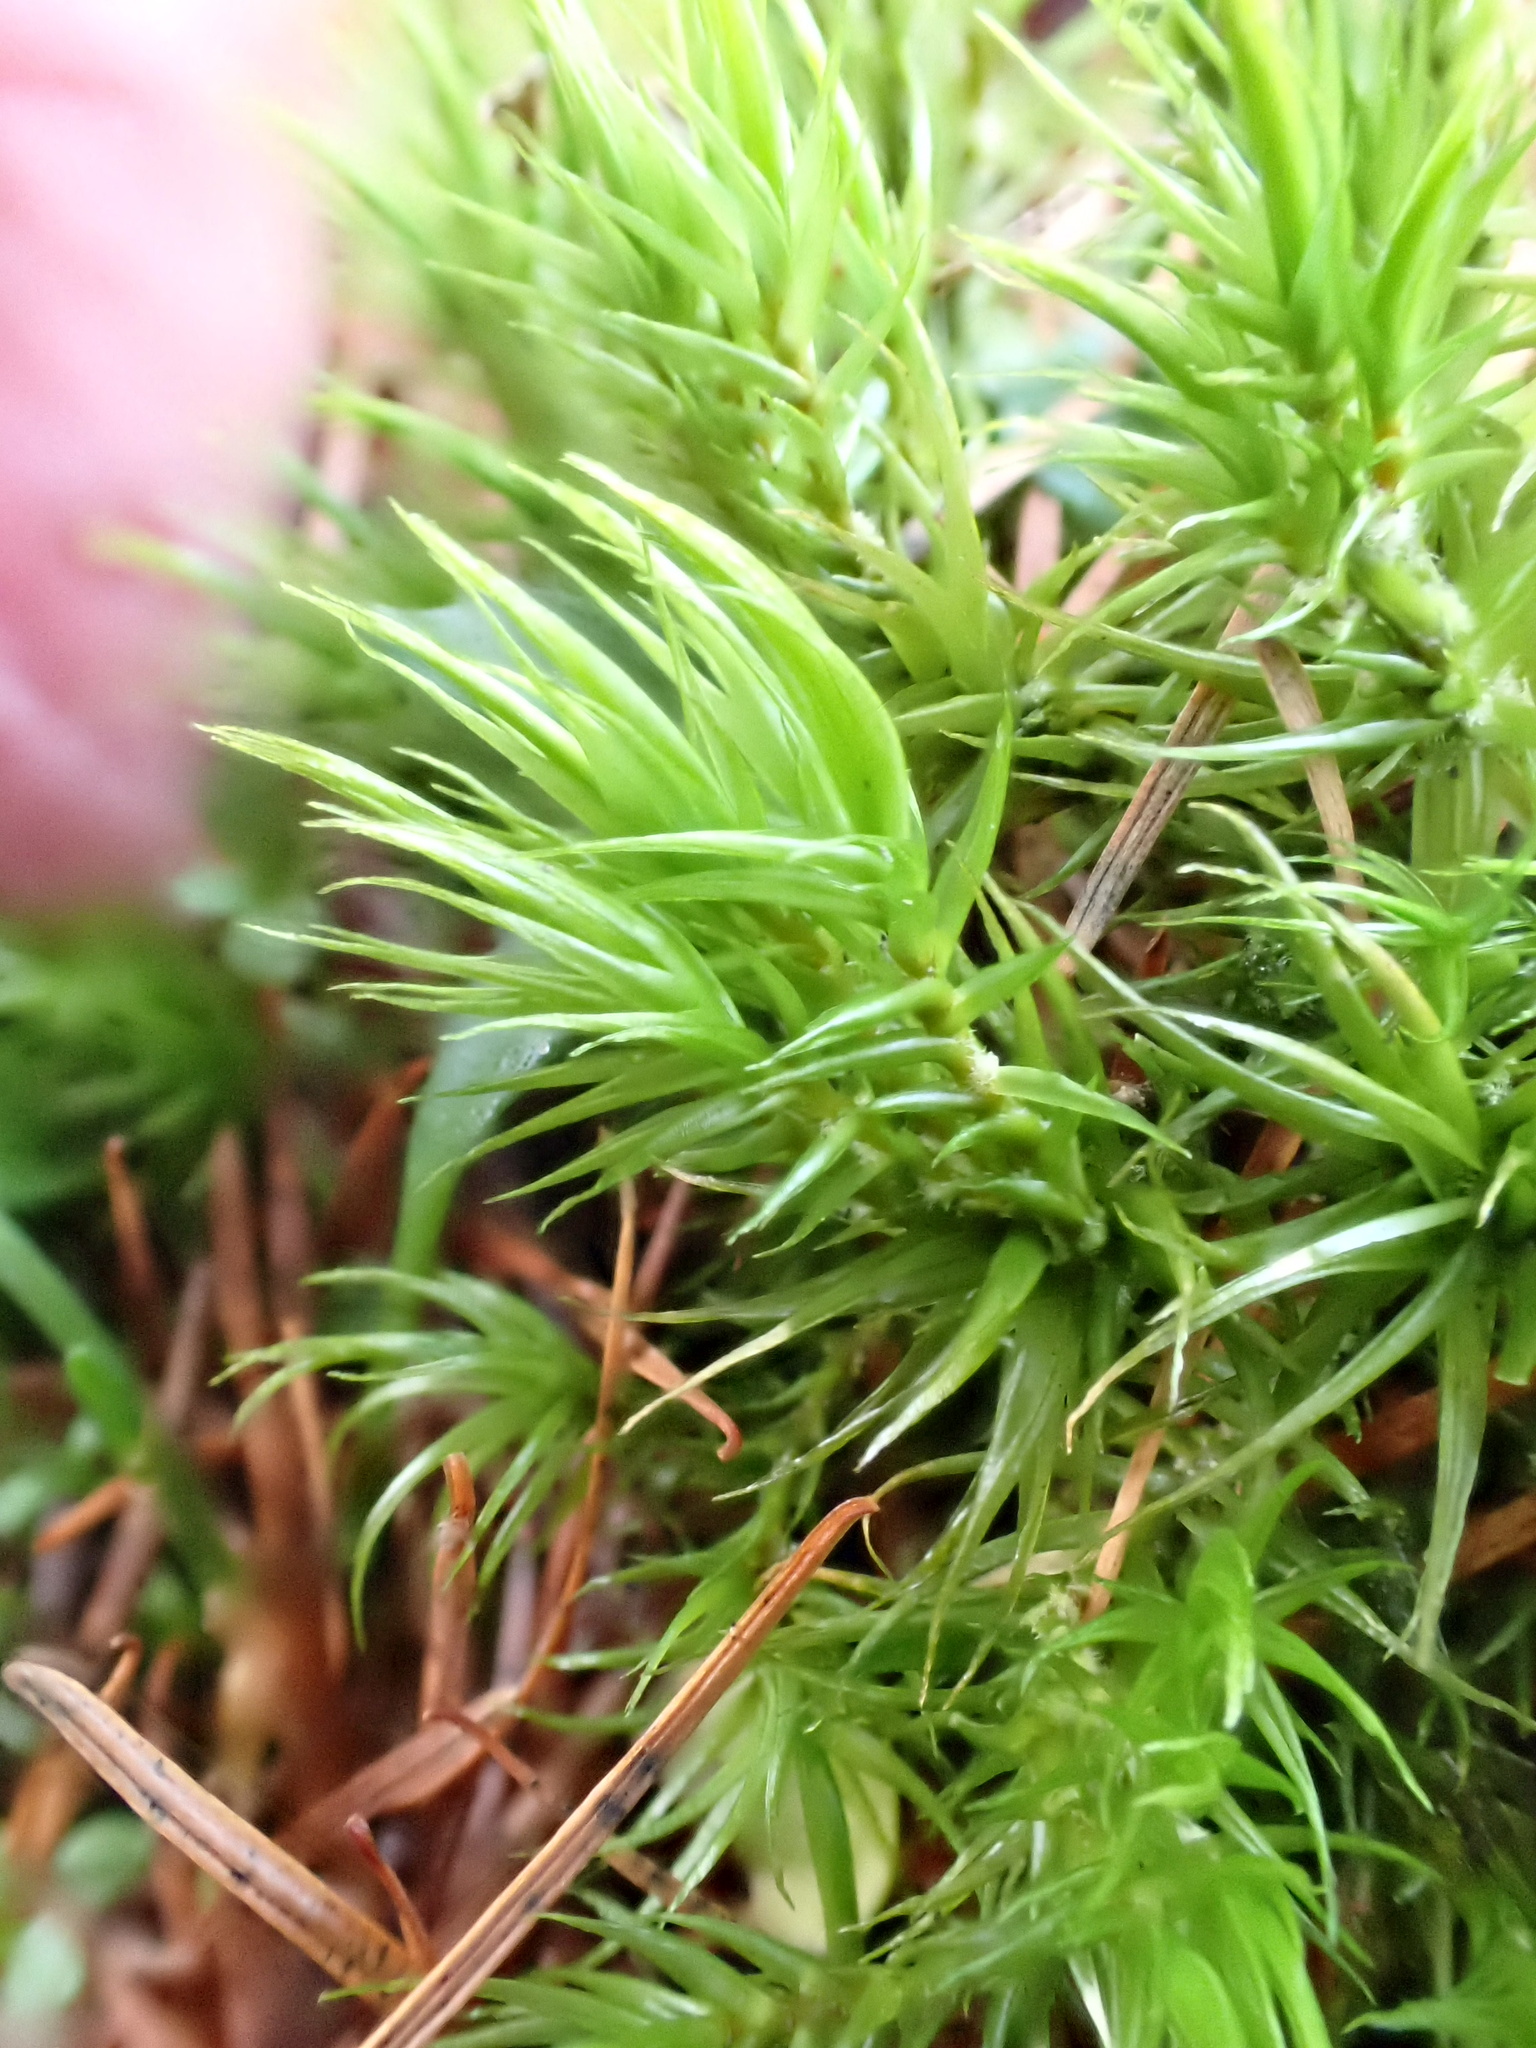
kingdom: Plantae
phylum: Bryophyta
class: Bryopsida
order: Dicranales
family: Dicranaceae
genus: Dicranum
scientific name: Dicranum scoparium
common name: Broom fork-moss
